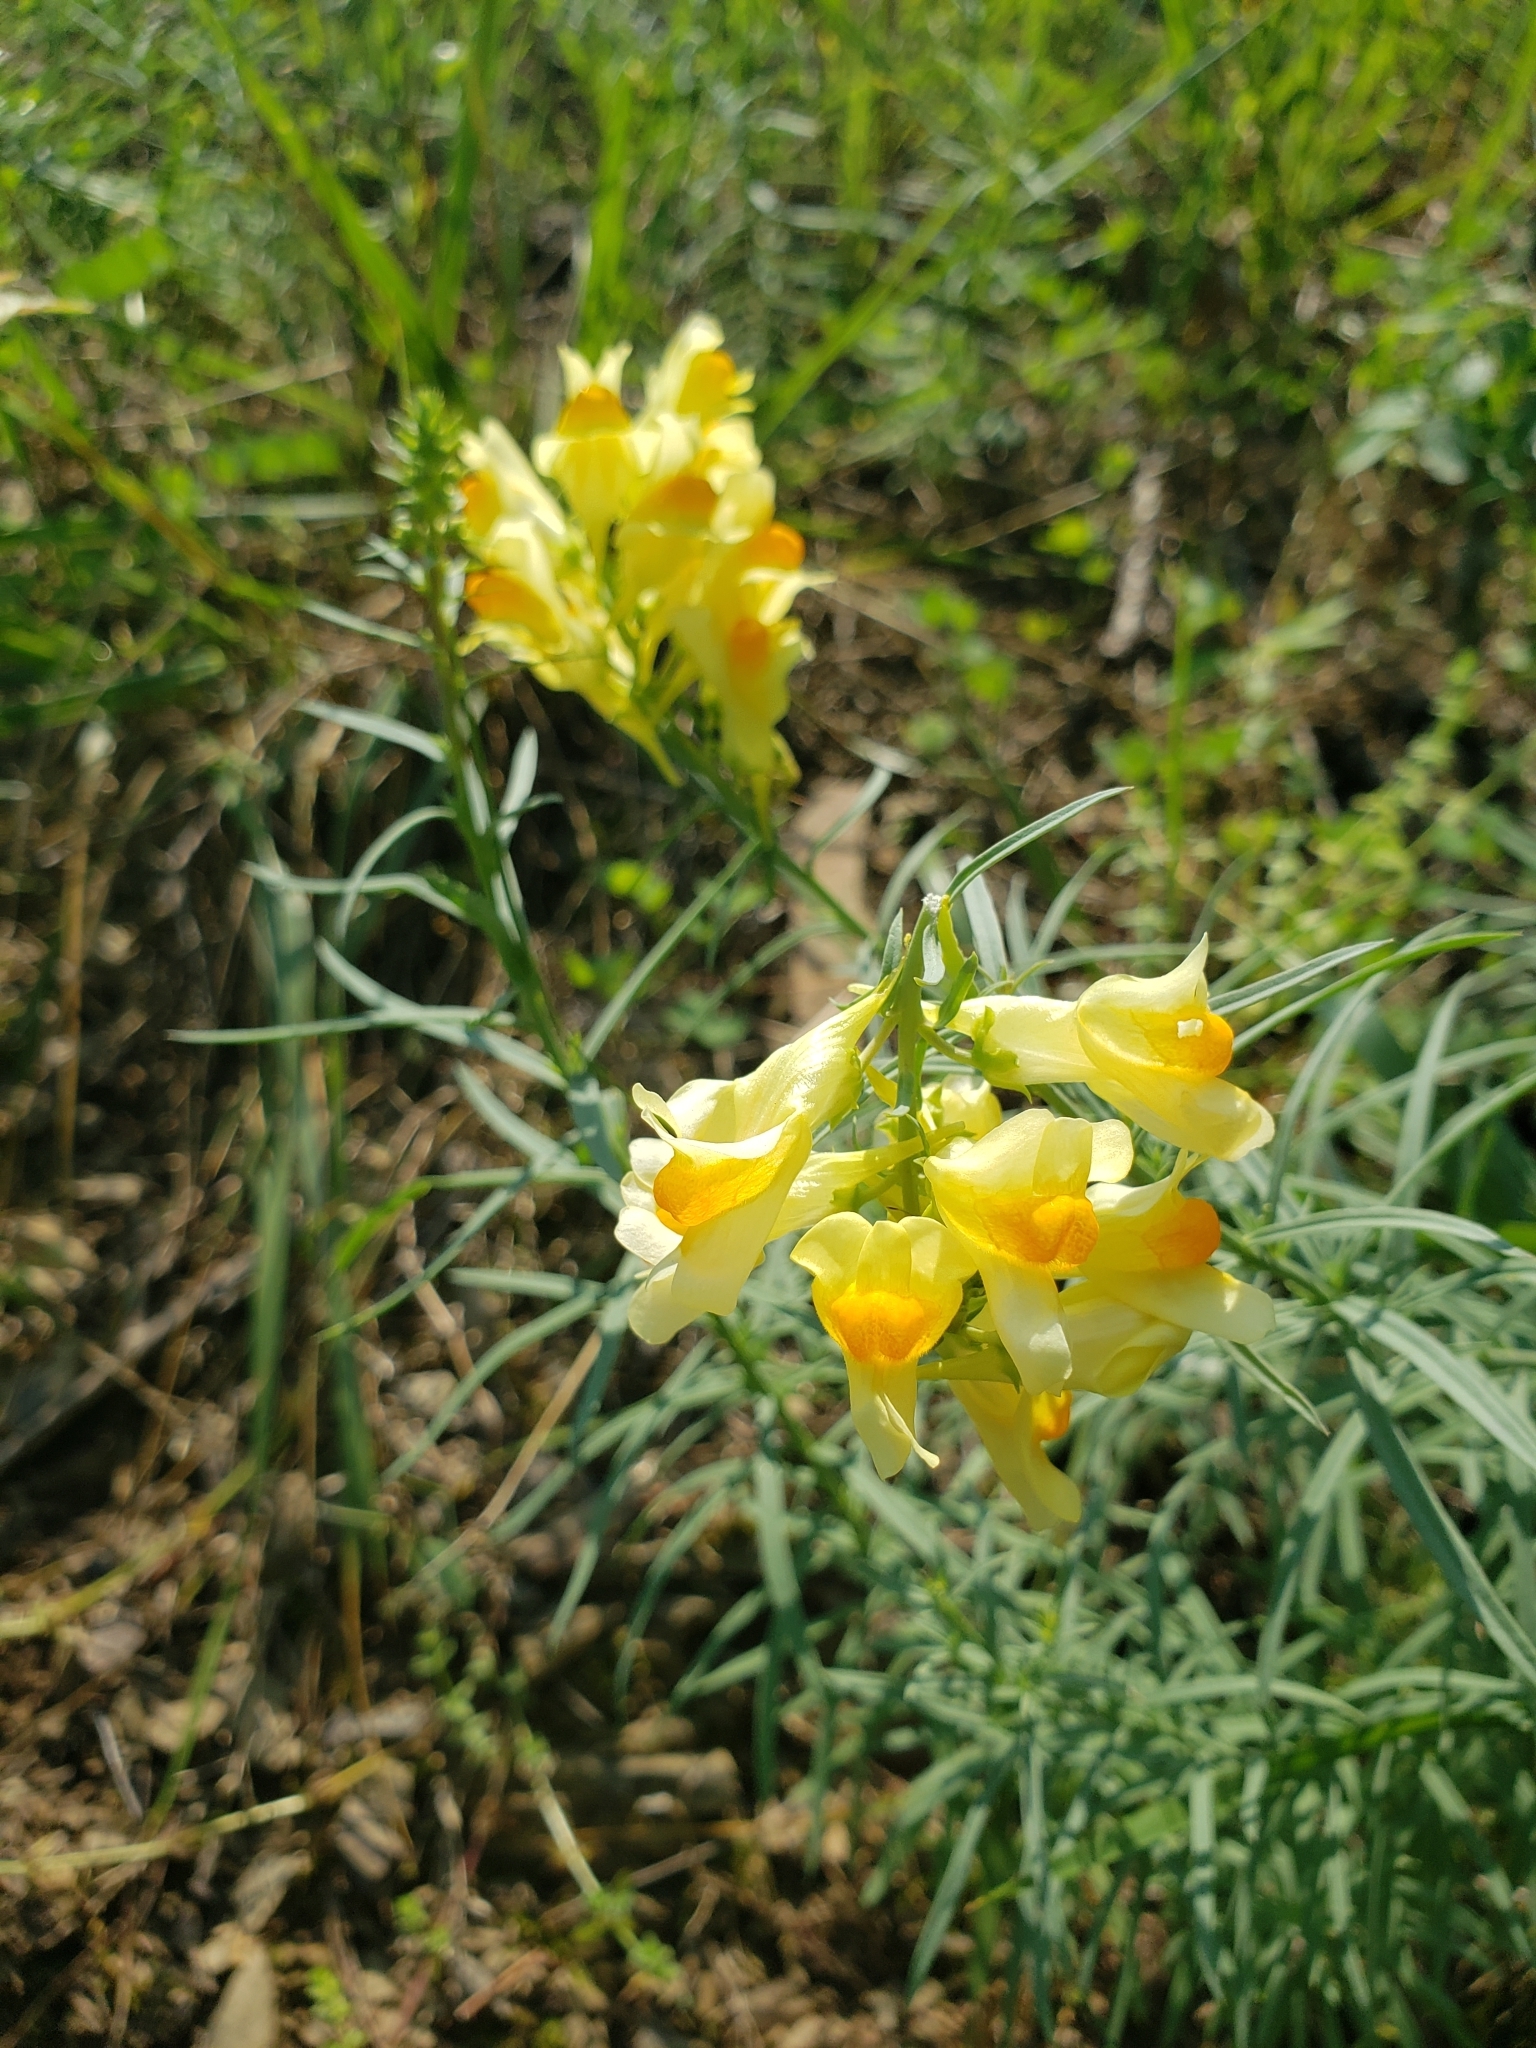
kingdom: Plantae
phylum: Tracheophyta
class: Magnoliopsida
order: Lamiales
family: Plantaginaceae
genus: Linaria
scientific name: Linaria vulgaris
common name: Butter and eggs
